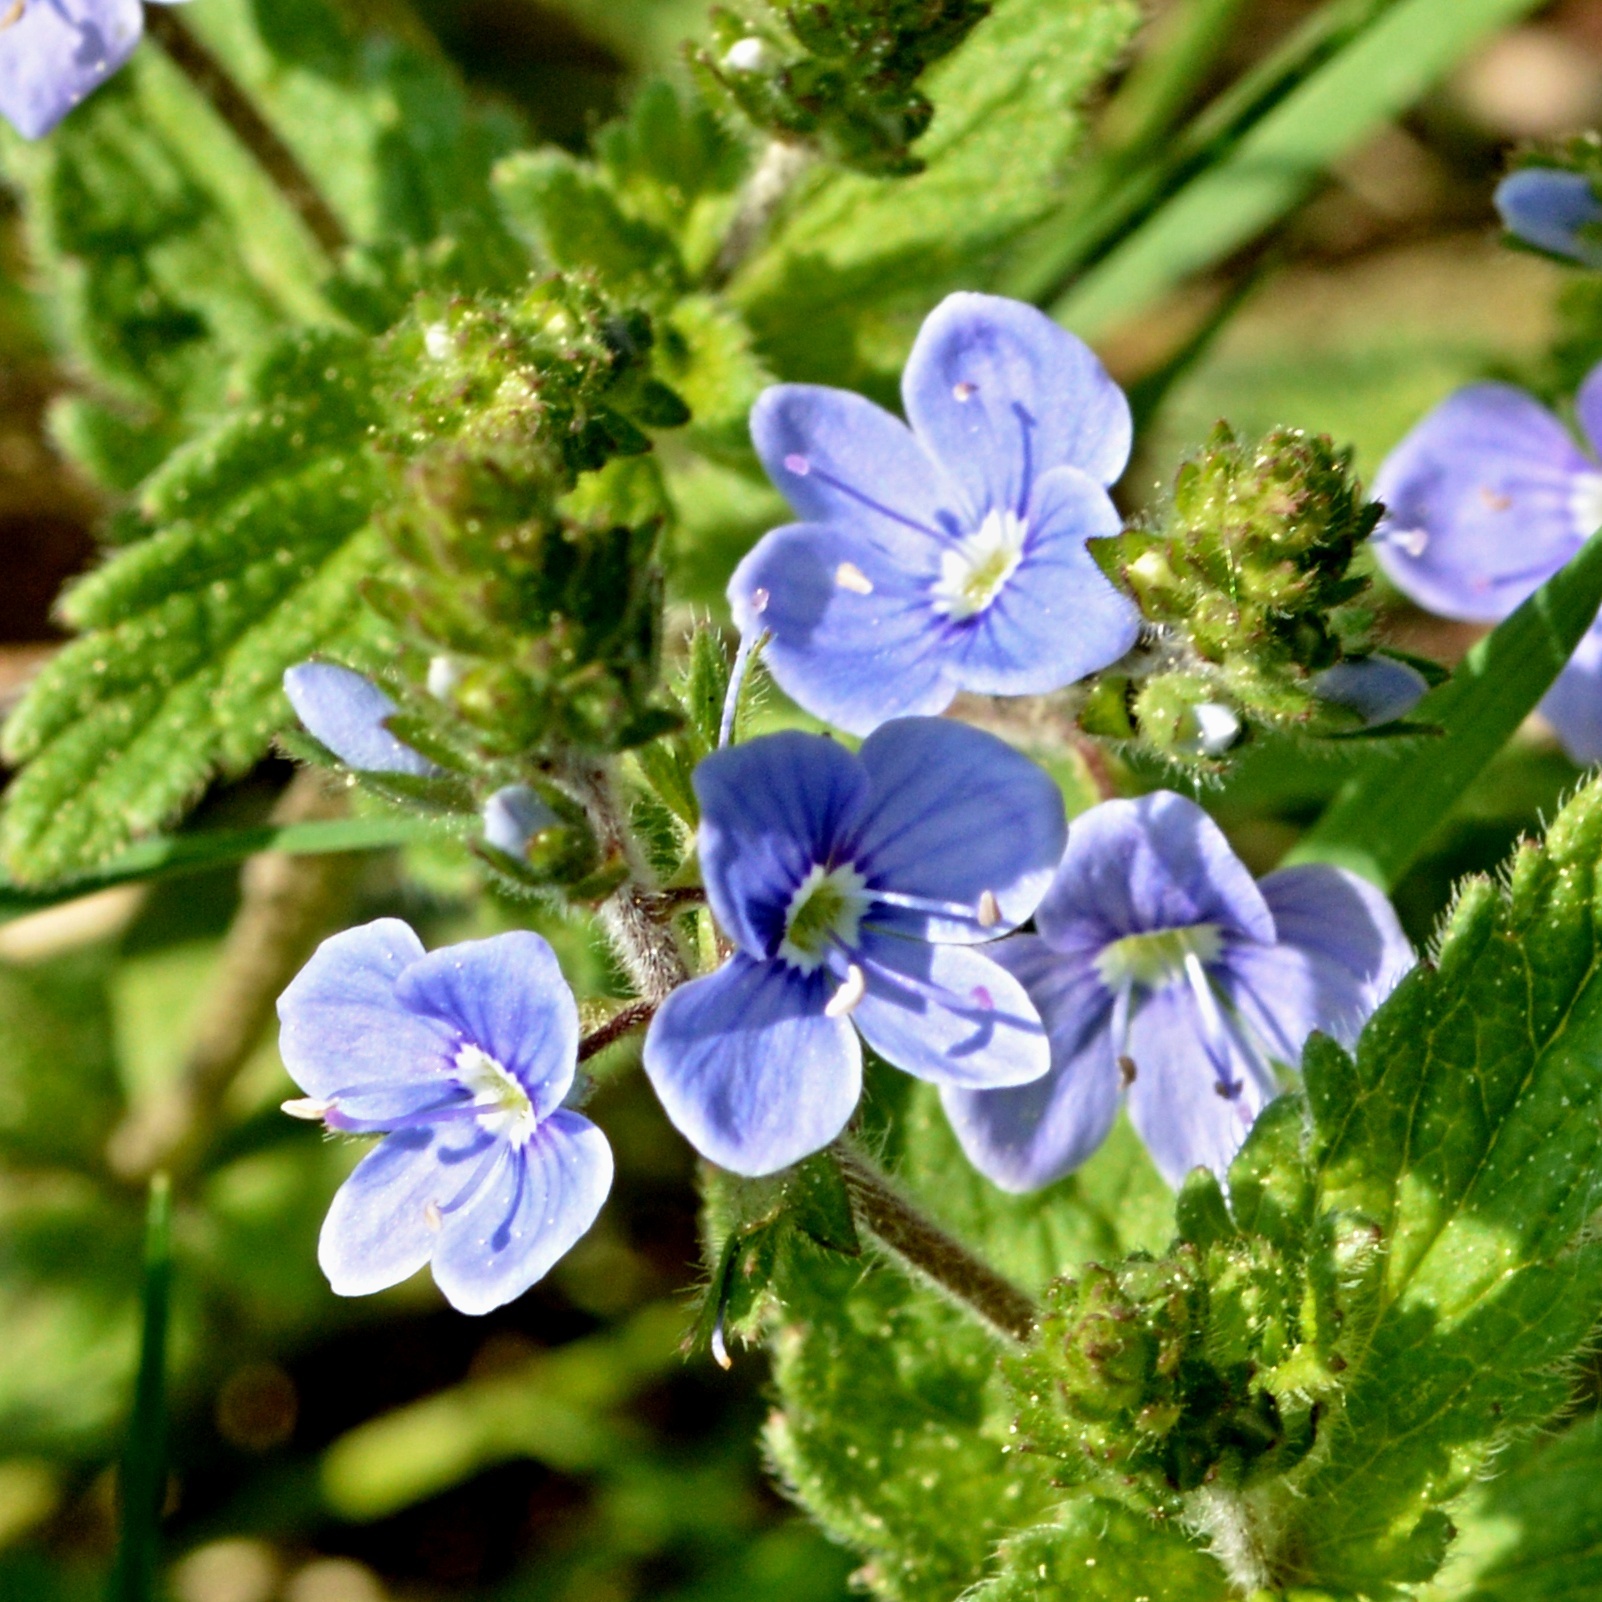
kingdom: Plantae
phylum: Tracheophyta
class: Magnoliopsida
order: Lamiales
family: Plantaginaceae
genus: Veronica
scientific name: Veronica chamaedrys
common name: Germander speedwell
